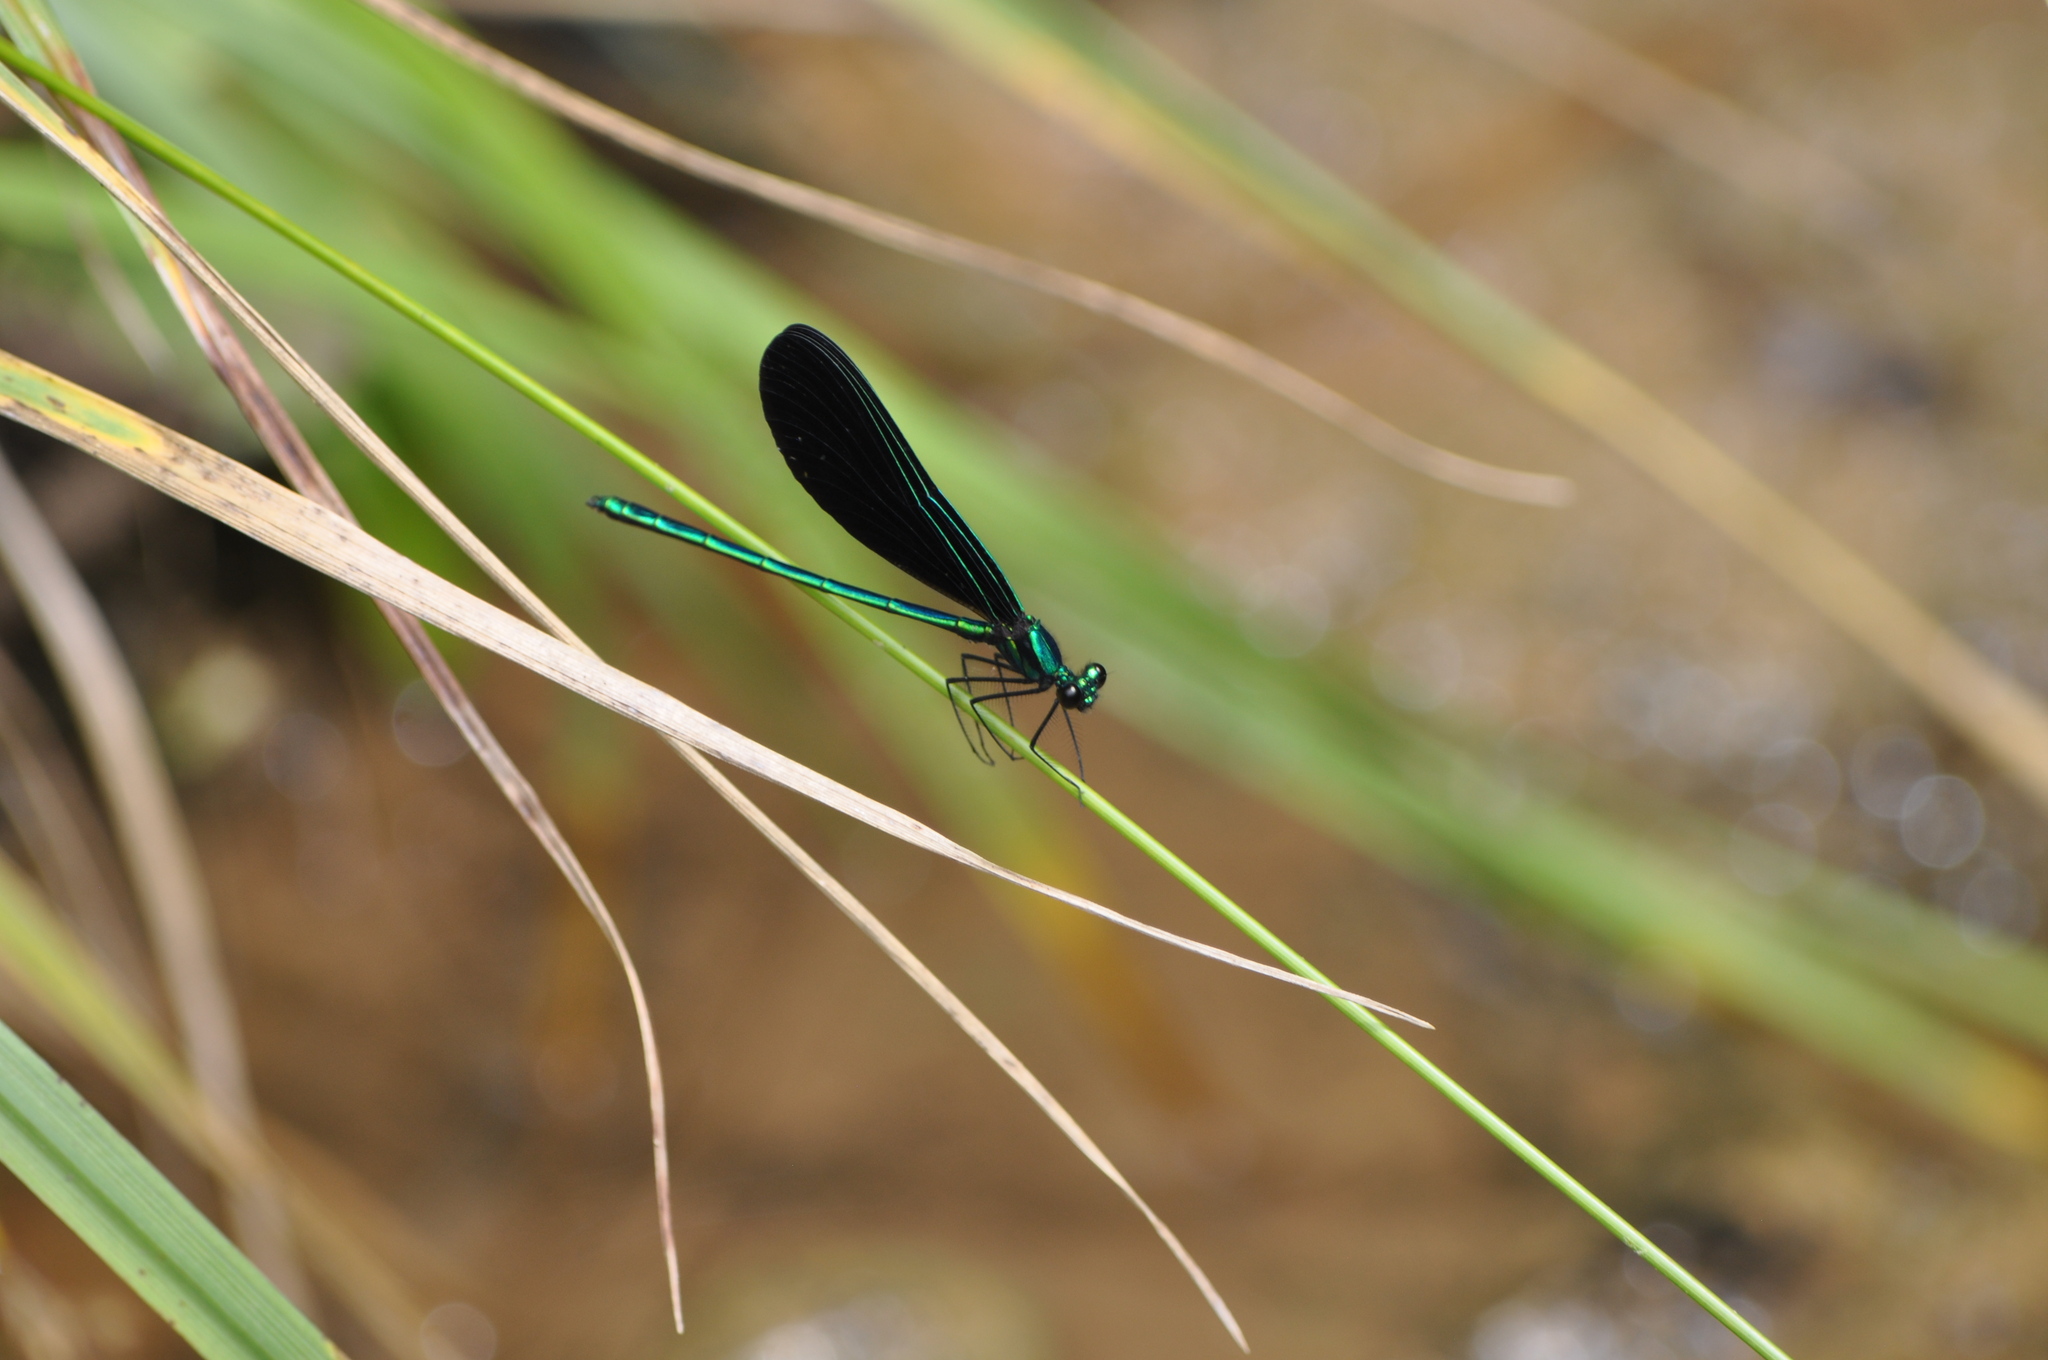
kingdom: Animalia
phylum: Arthropoda
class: Insecta
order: Odonata
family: Calopterygidae
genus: Calopteryx
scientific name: Calopteryx maculata
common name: Ebony jewelwing
